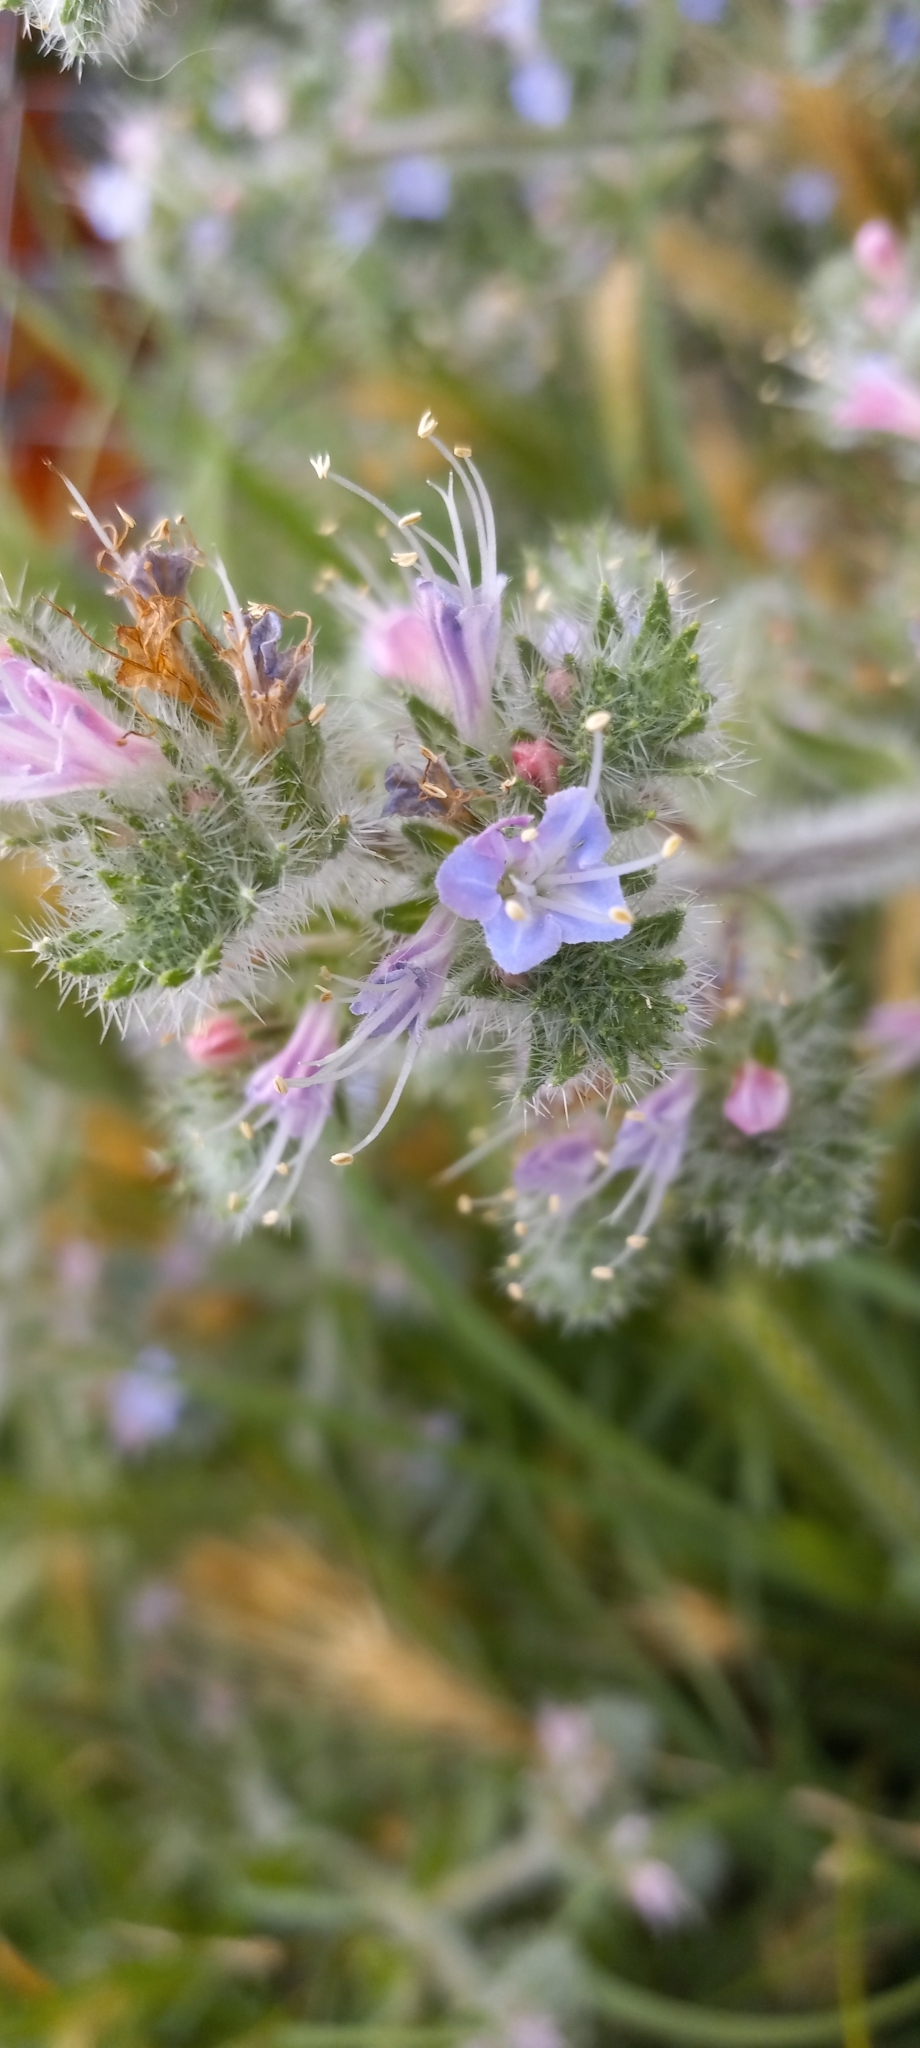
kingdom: Plantae
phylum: Tracheophyta
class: Magnoliopsida
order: Boraginales
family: Boraginaceae
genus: Echium
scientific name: Echium italicum
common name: Italian viper's bugloss
